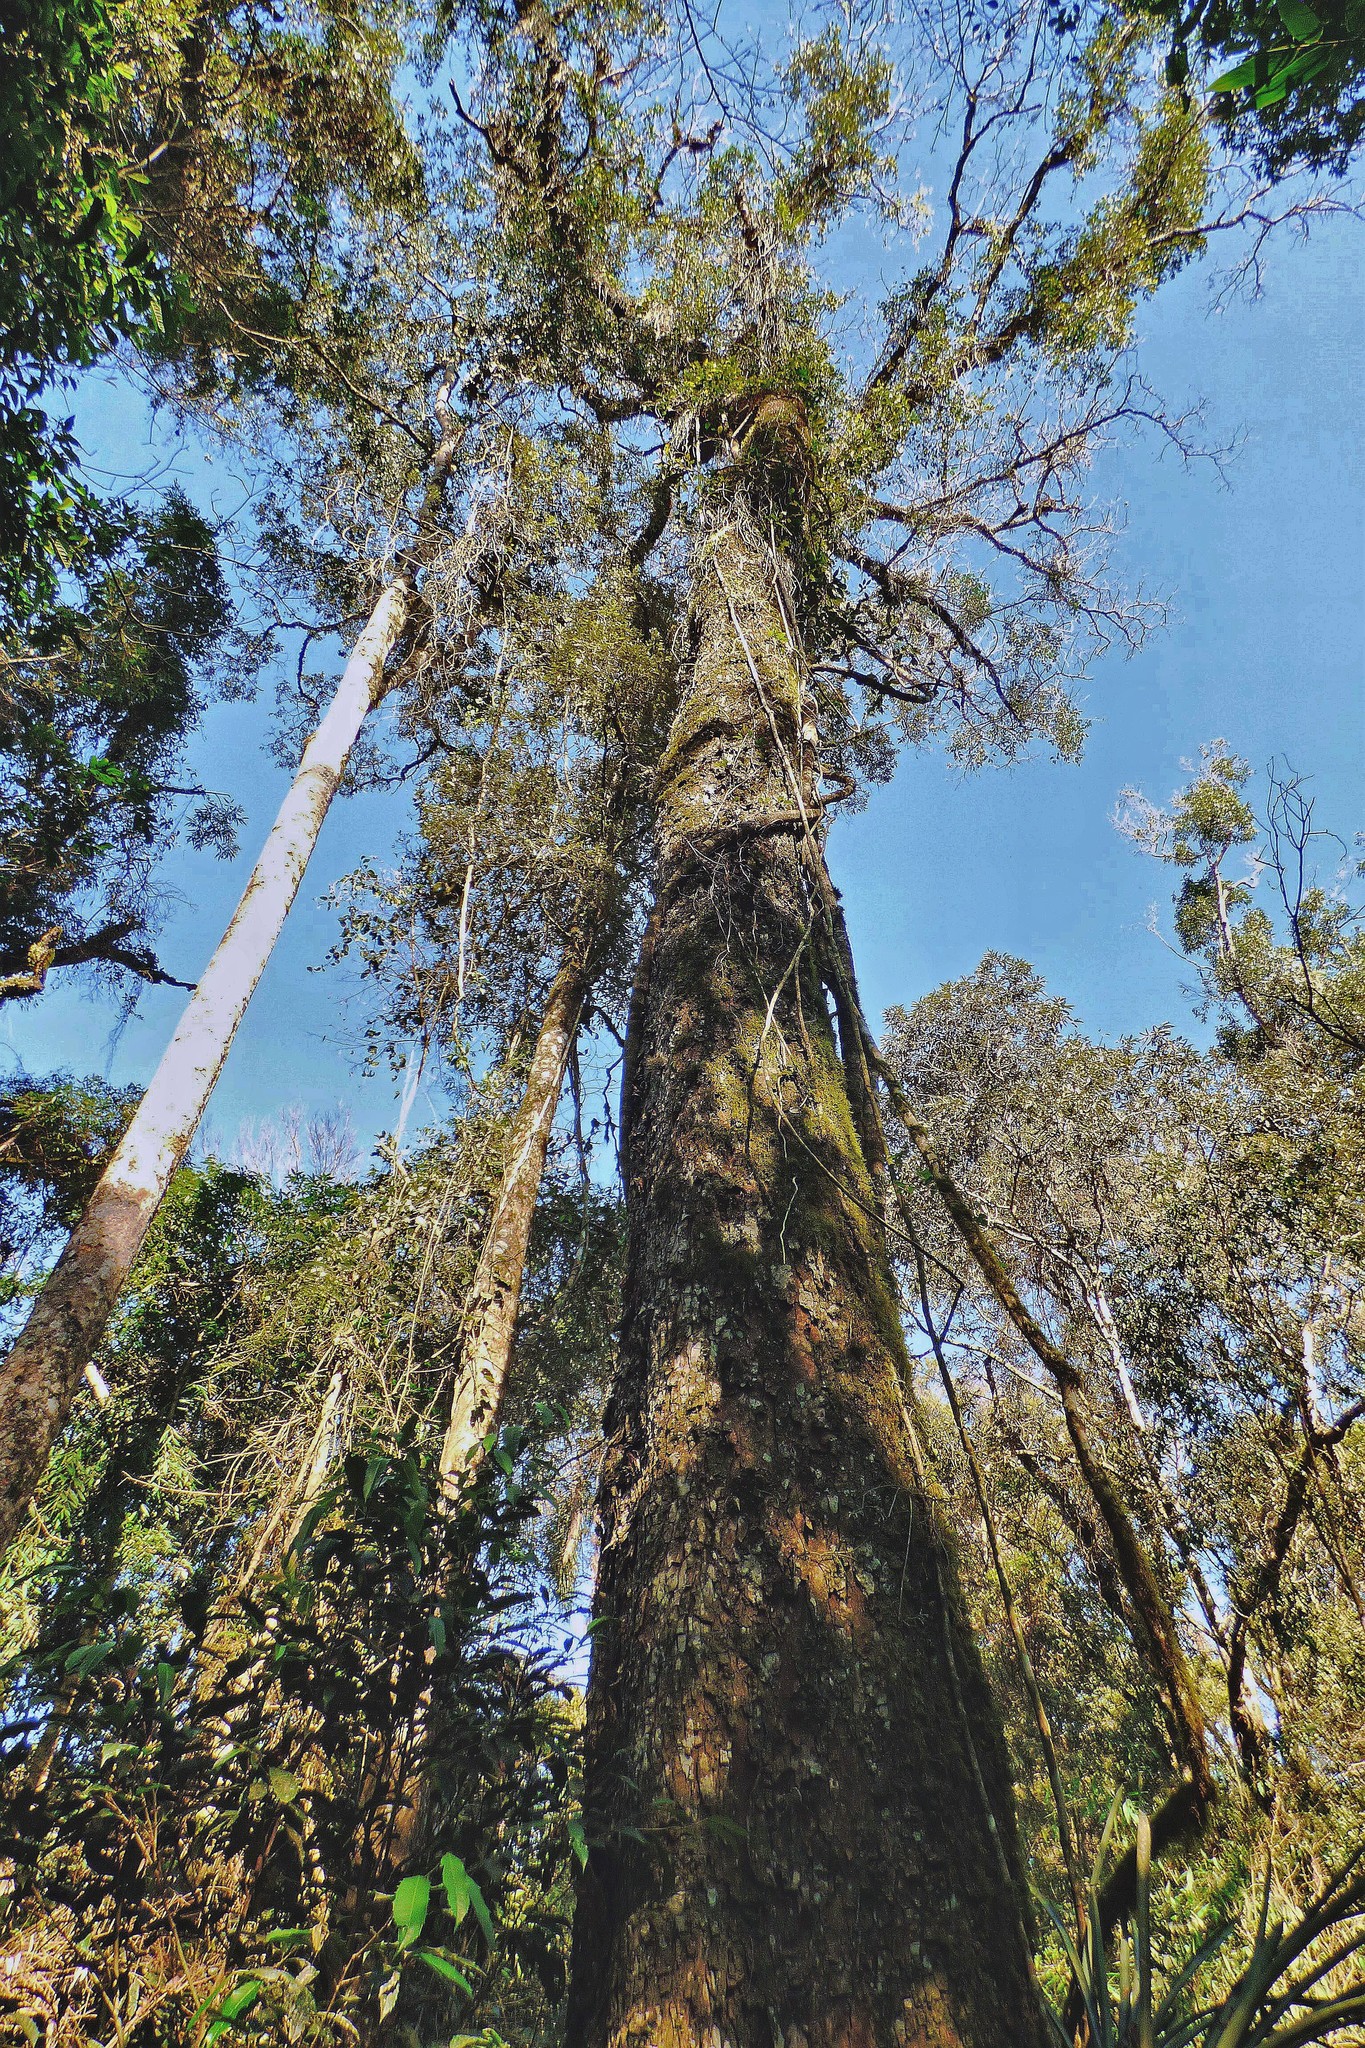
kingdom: Plantae
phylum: Tracheophyta
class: Magnoliopsida
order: Fabales
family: Fabaceae
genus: Parapiptadenia
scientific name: Parapiptadenia rigida
